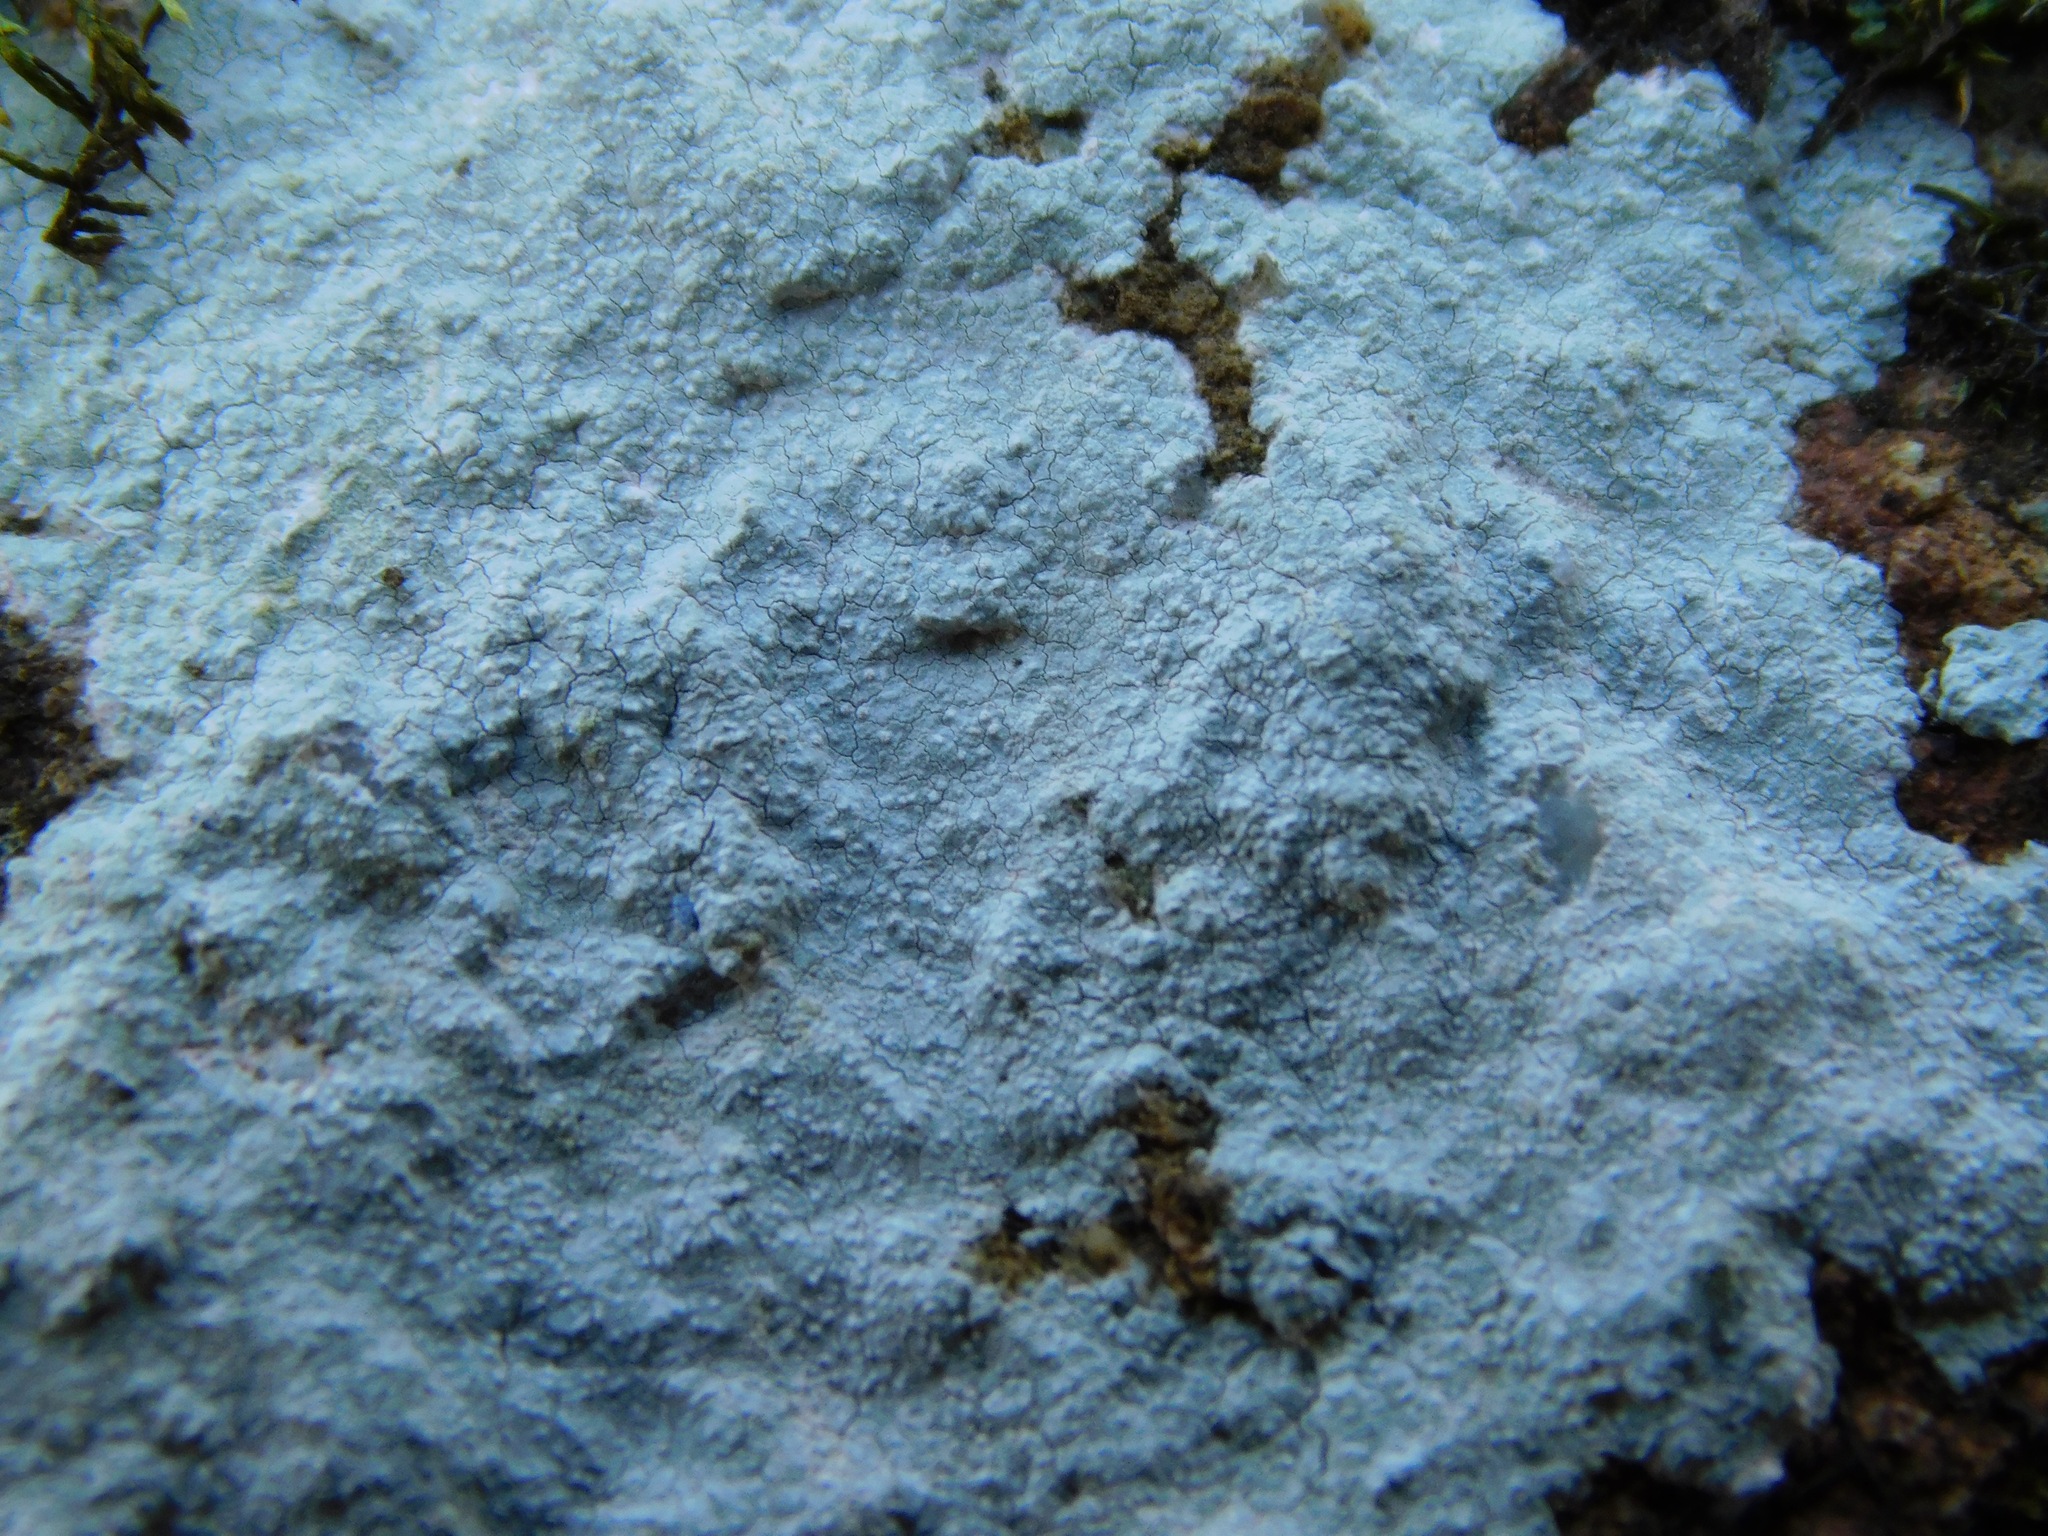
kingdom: Fungi
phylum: Ascomycota
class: Lecanoromycetes
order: Ostropales
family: Phlyctidaceae
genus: Phlyctis
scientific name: Phlyctis petraea
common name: Eggshell rock blaze
